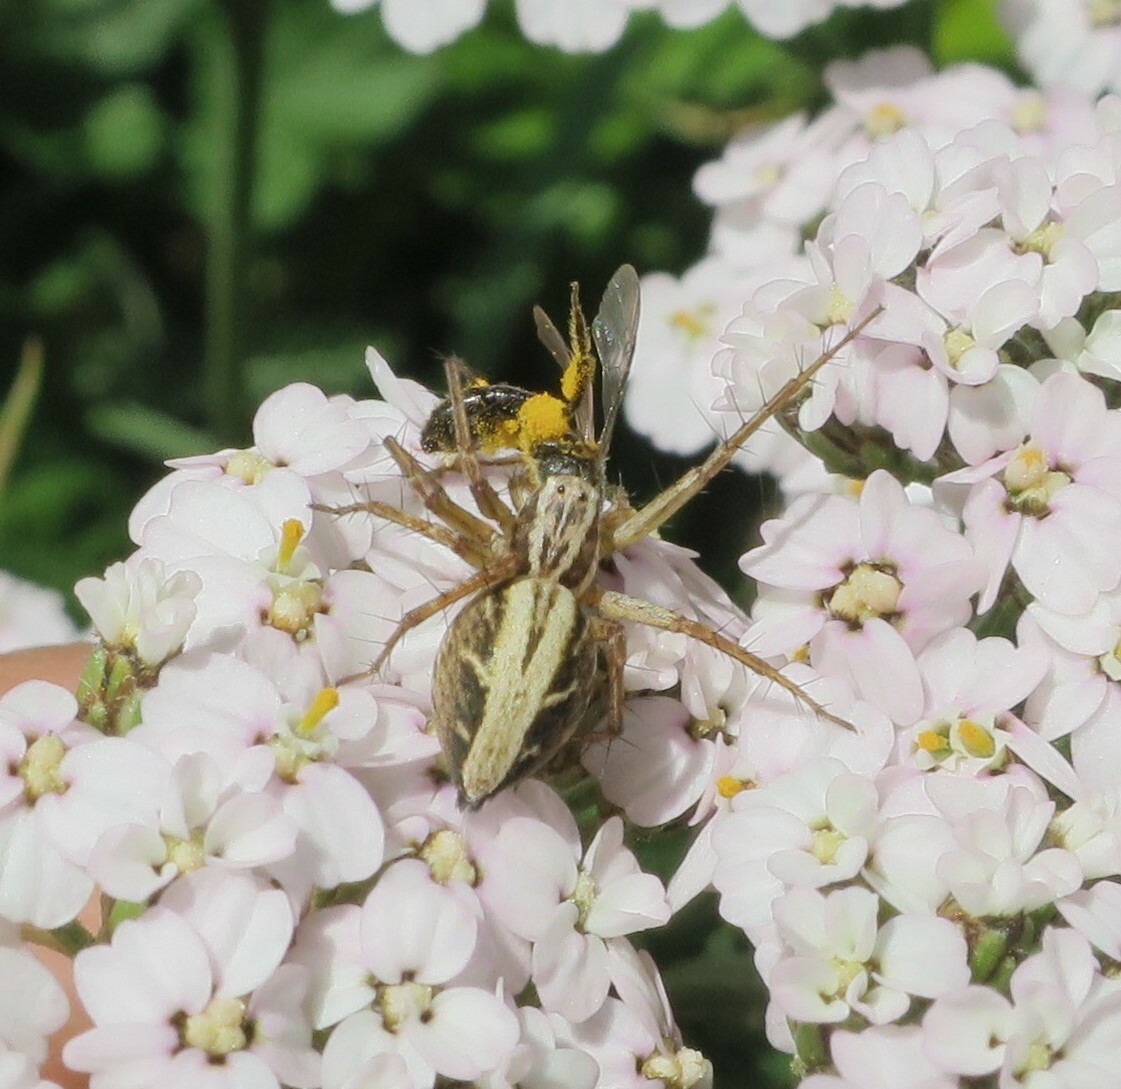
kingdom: Animalia
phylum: Arthropoda
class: Arachnida
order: Araneae
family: Oxyopidae
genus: Oxyopes
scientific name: Oxyopes gracilipes
